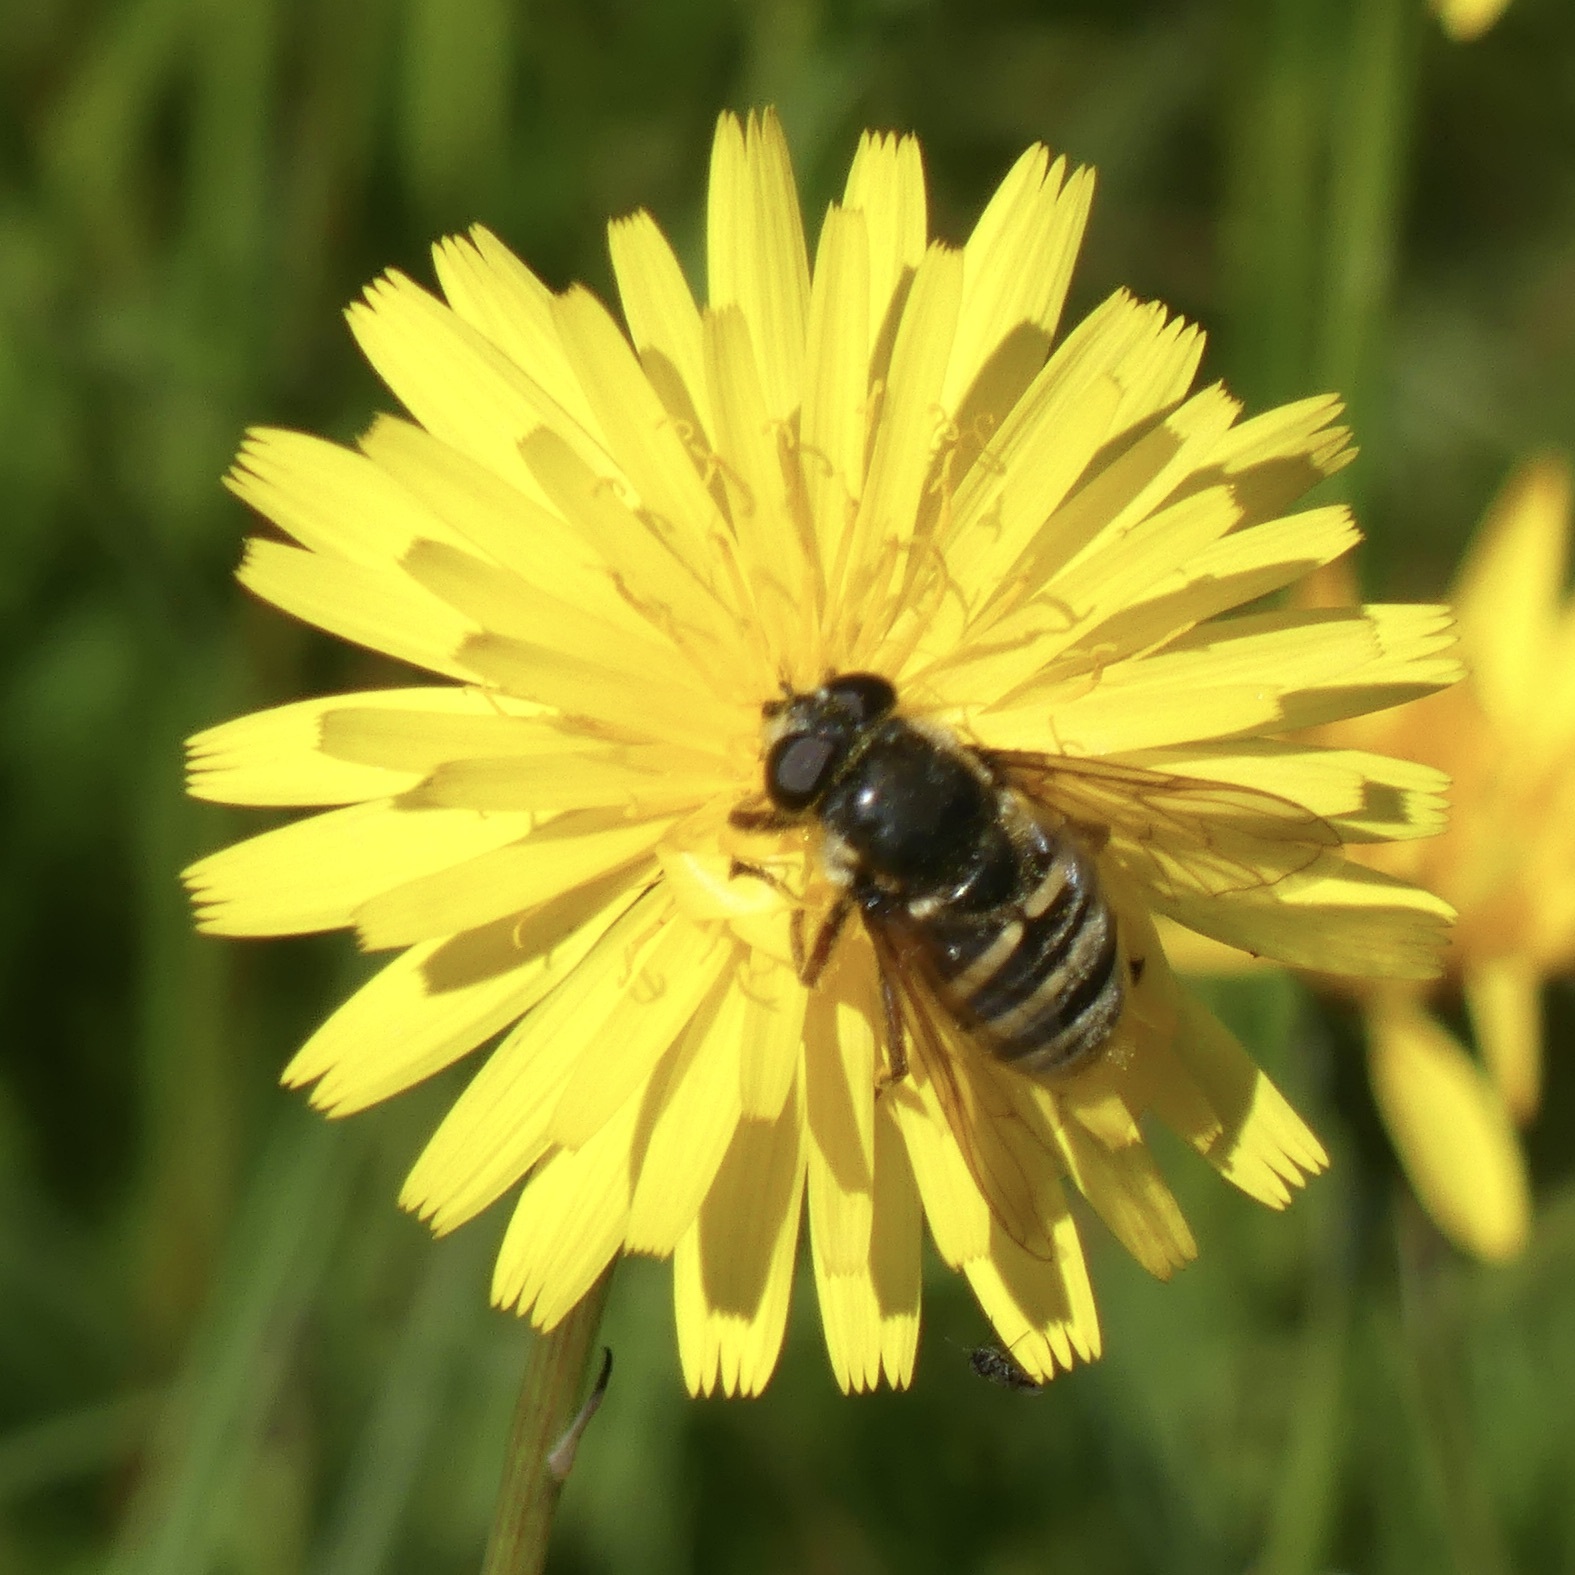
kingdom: Animalia
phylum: Arthropoda
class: Insecta
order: Diptera
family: Syrphidae
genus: Sericomyia
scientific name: Sericomyia silentis
